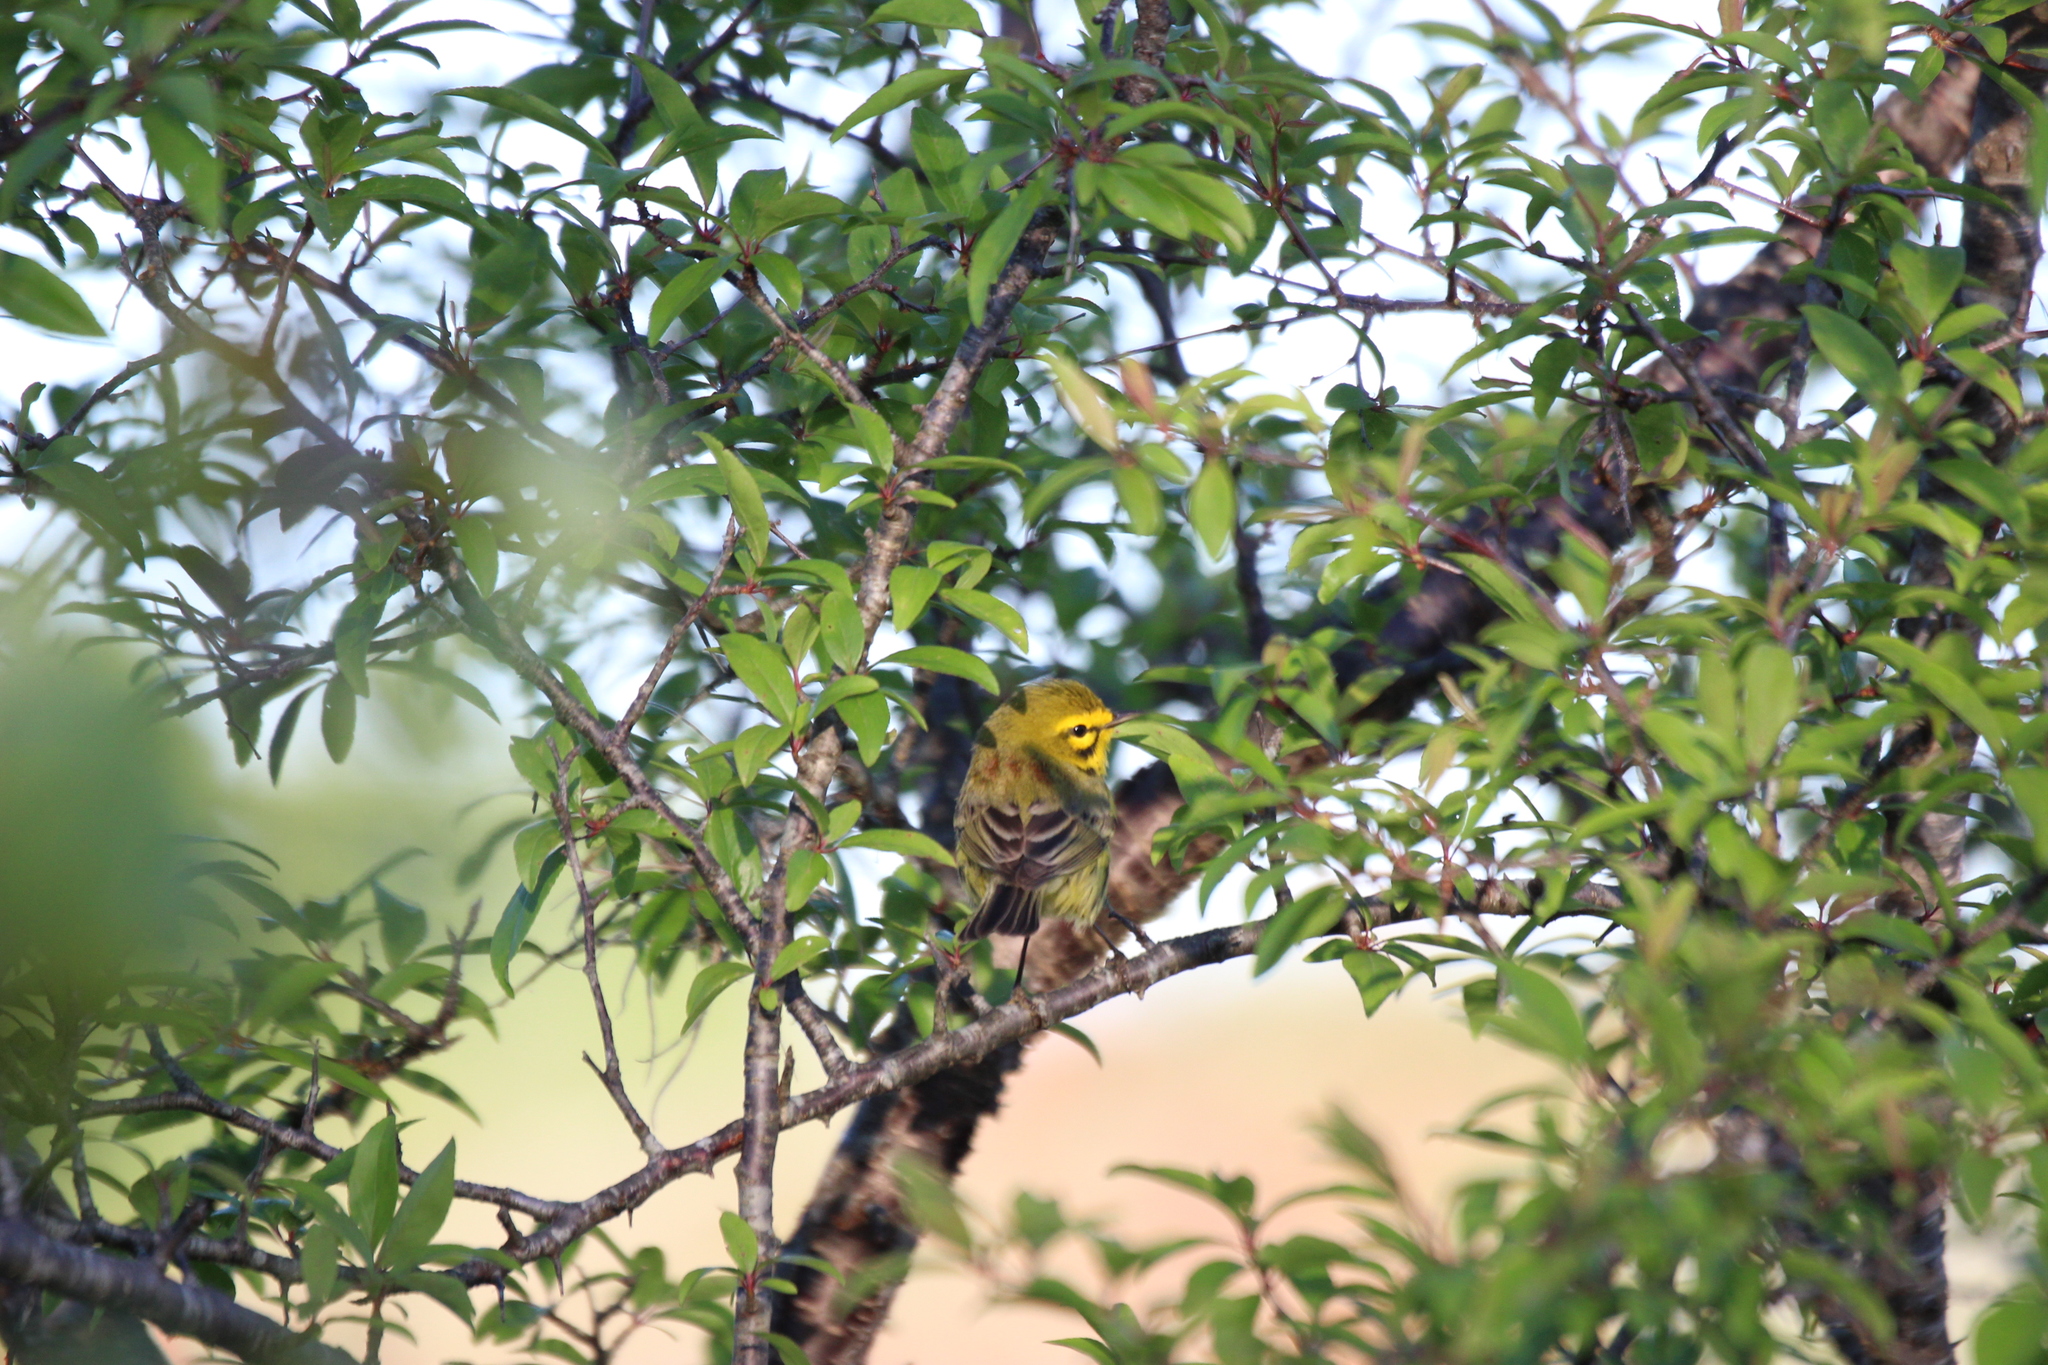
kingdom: Animalia
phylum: Chordata
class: Aves
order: Passeriformes
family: Parulidae
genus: Setophaga
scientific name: Setophaga discolor
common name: Prairie warbler
